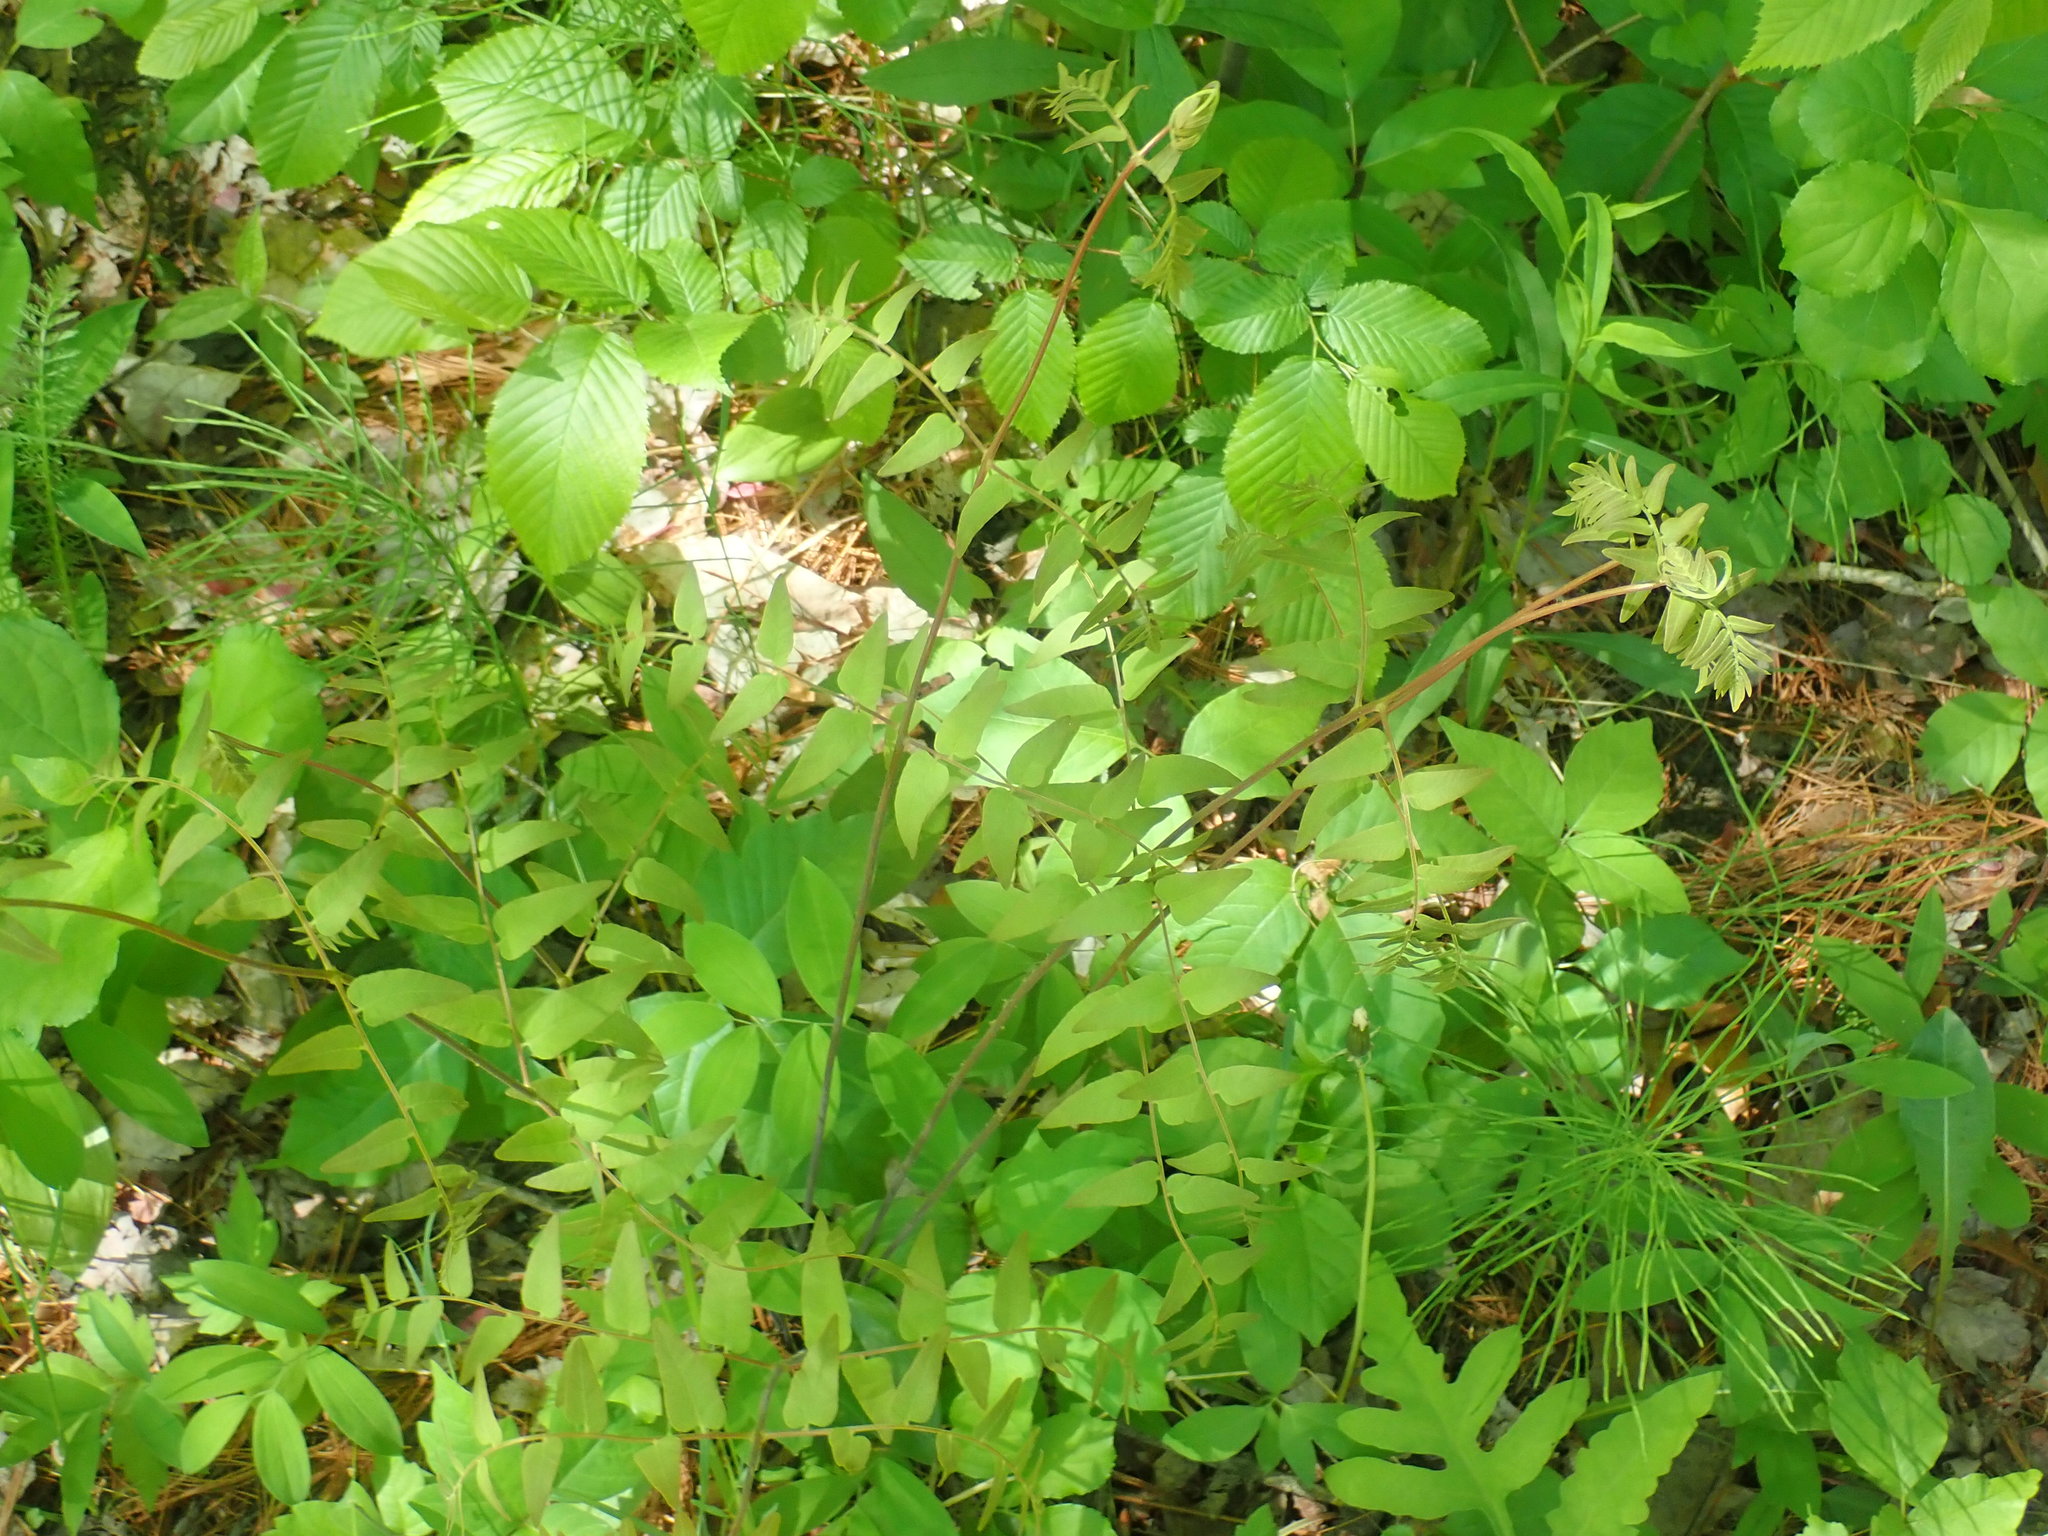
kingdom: Plantae
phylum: Tracheophyta
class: Polypodiopsida
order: Osmundales
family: Osmundaceae
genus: Osmunda
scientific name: Osmunda spectabilis
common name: American royal fern
